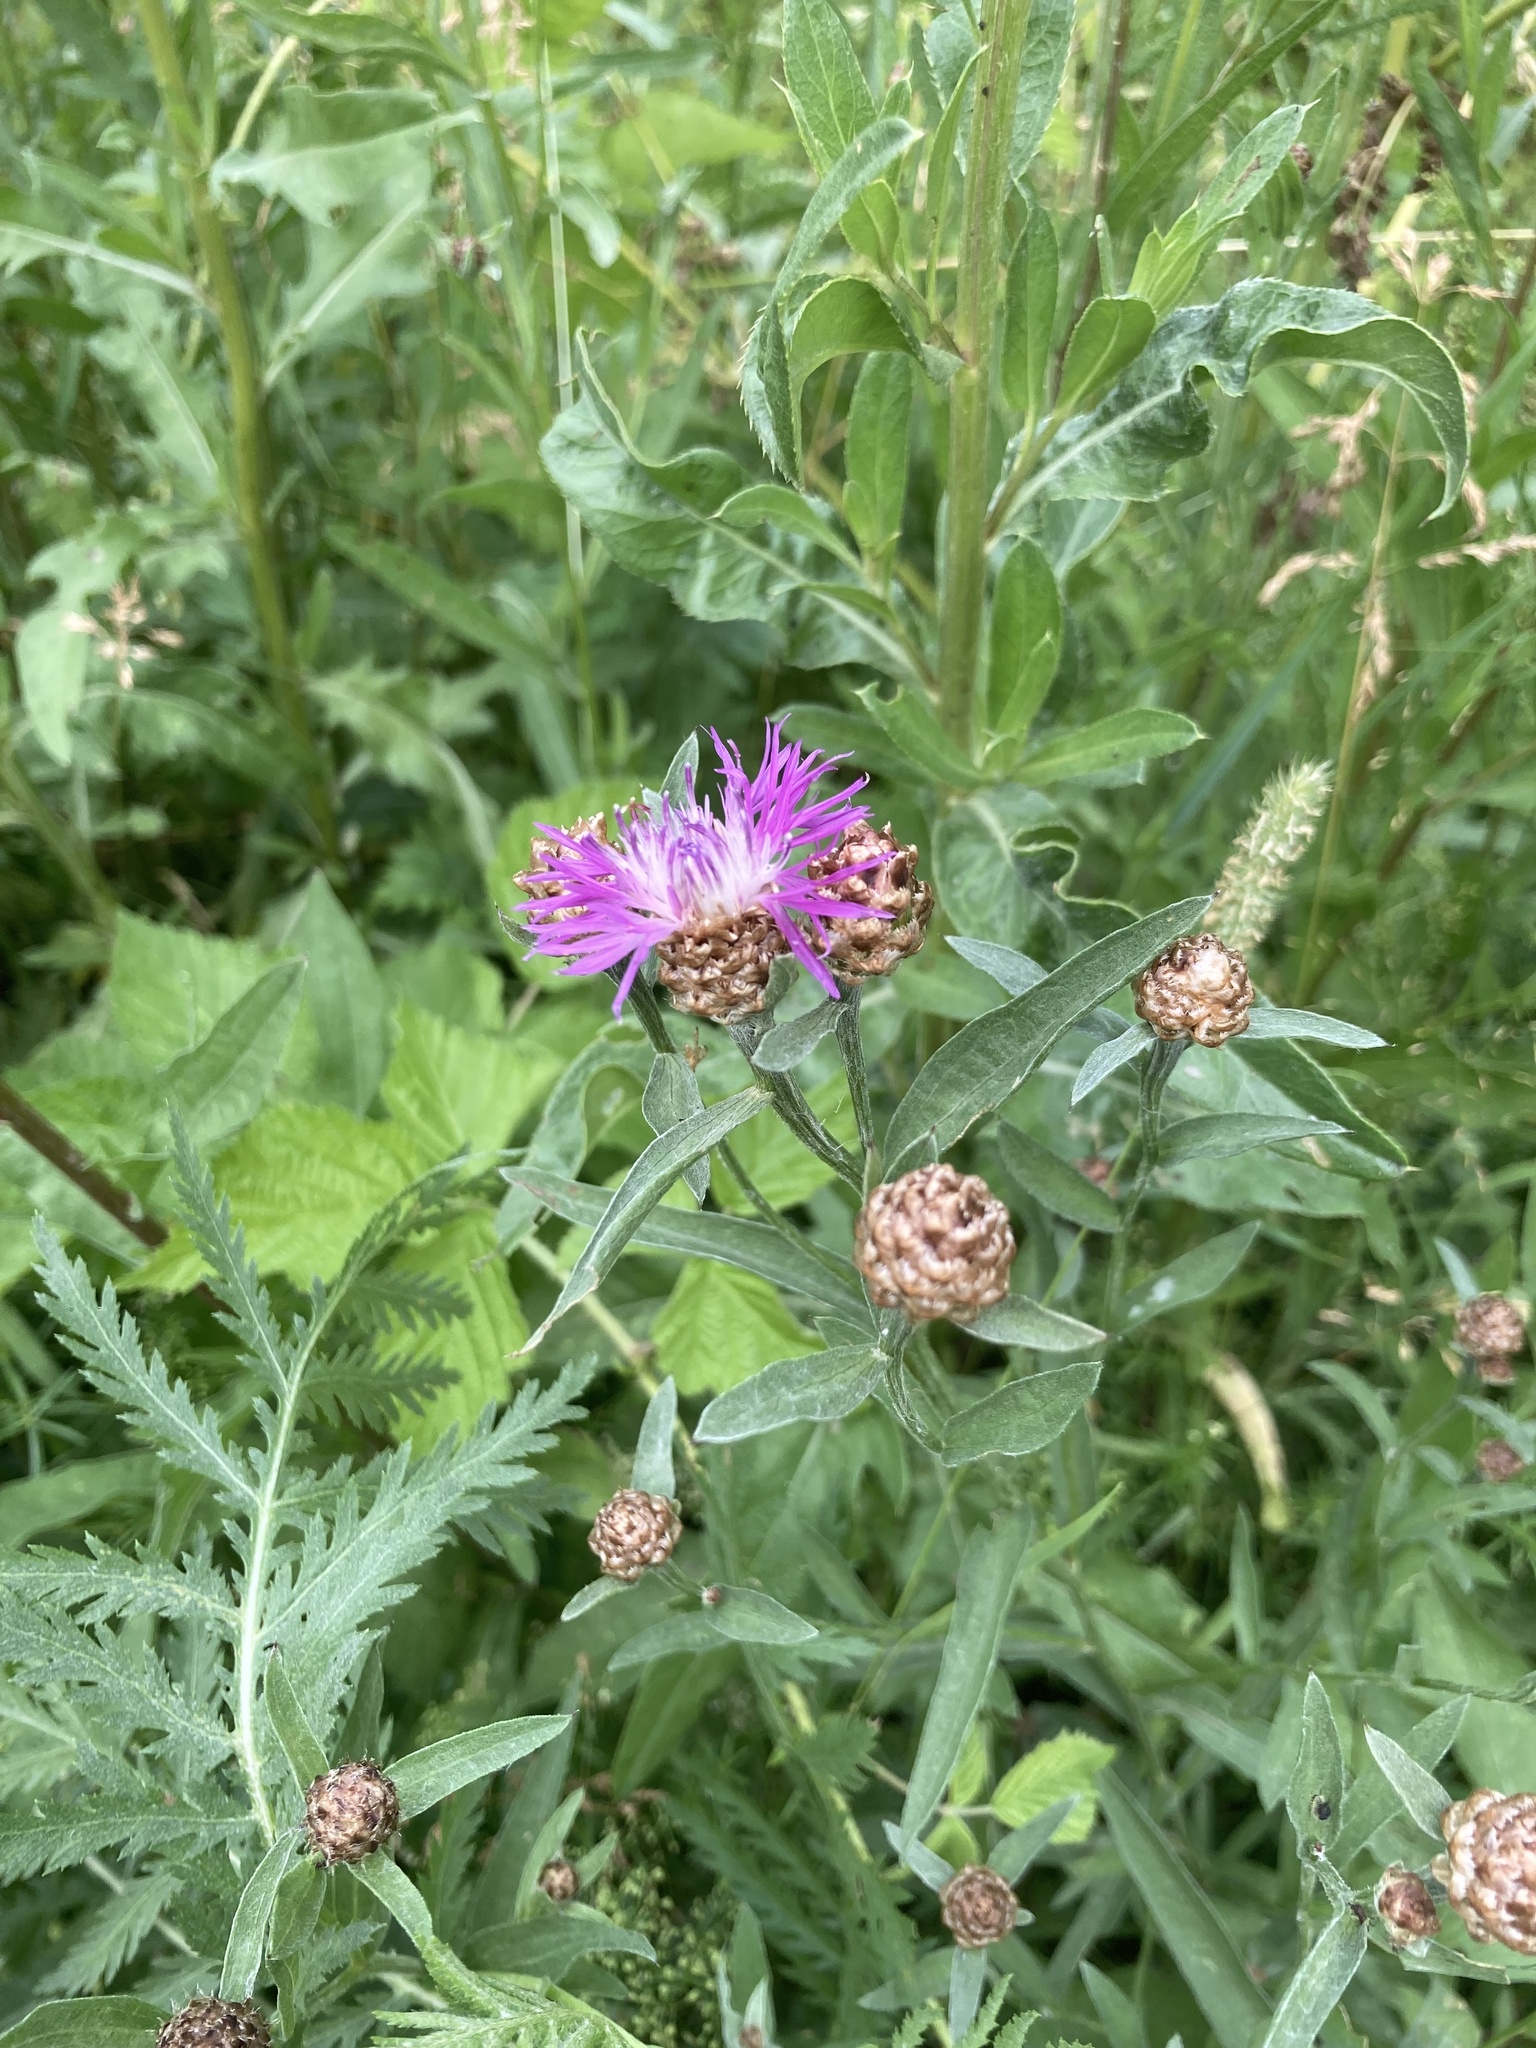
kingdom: Plantae
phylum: Tracheophyta
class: Magnoliopsida
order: Asterales
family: Asteraceae
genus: Centaurea
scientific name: Centaurea jacea
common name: Brown knapweed
